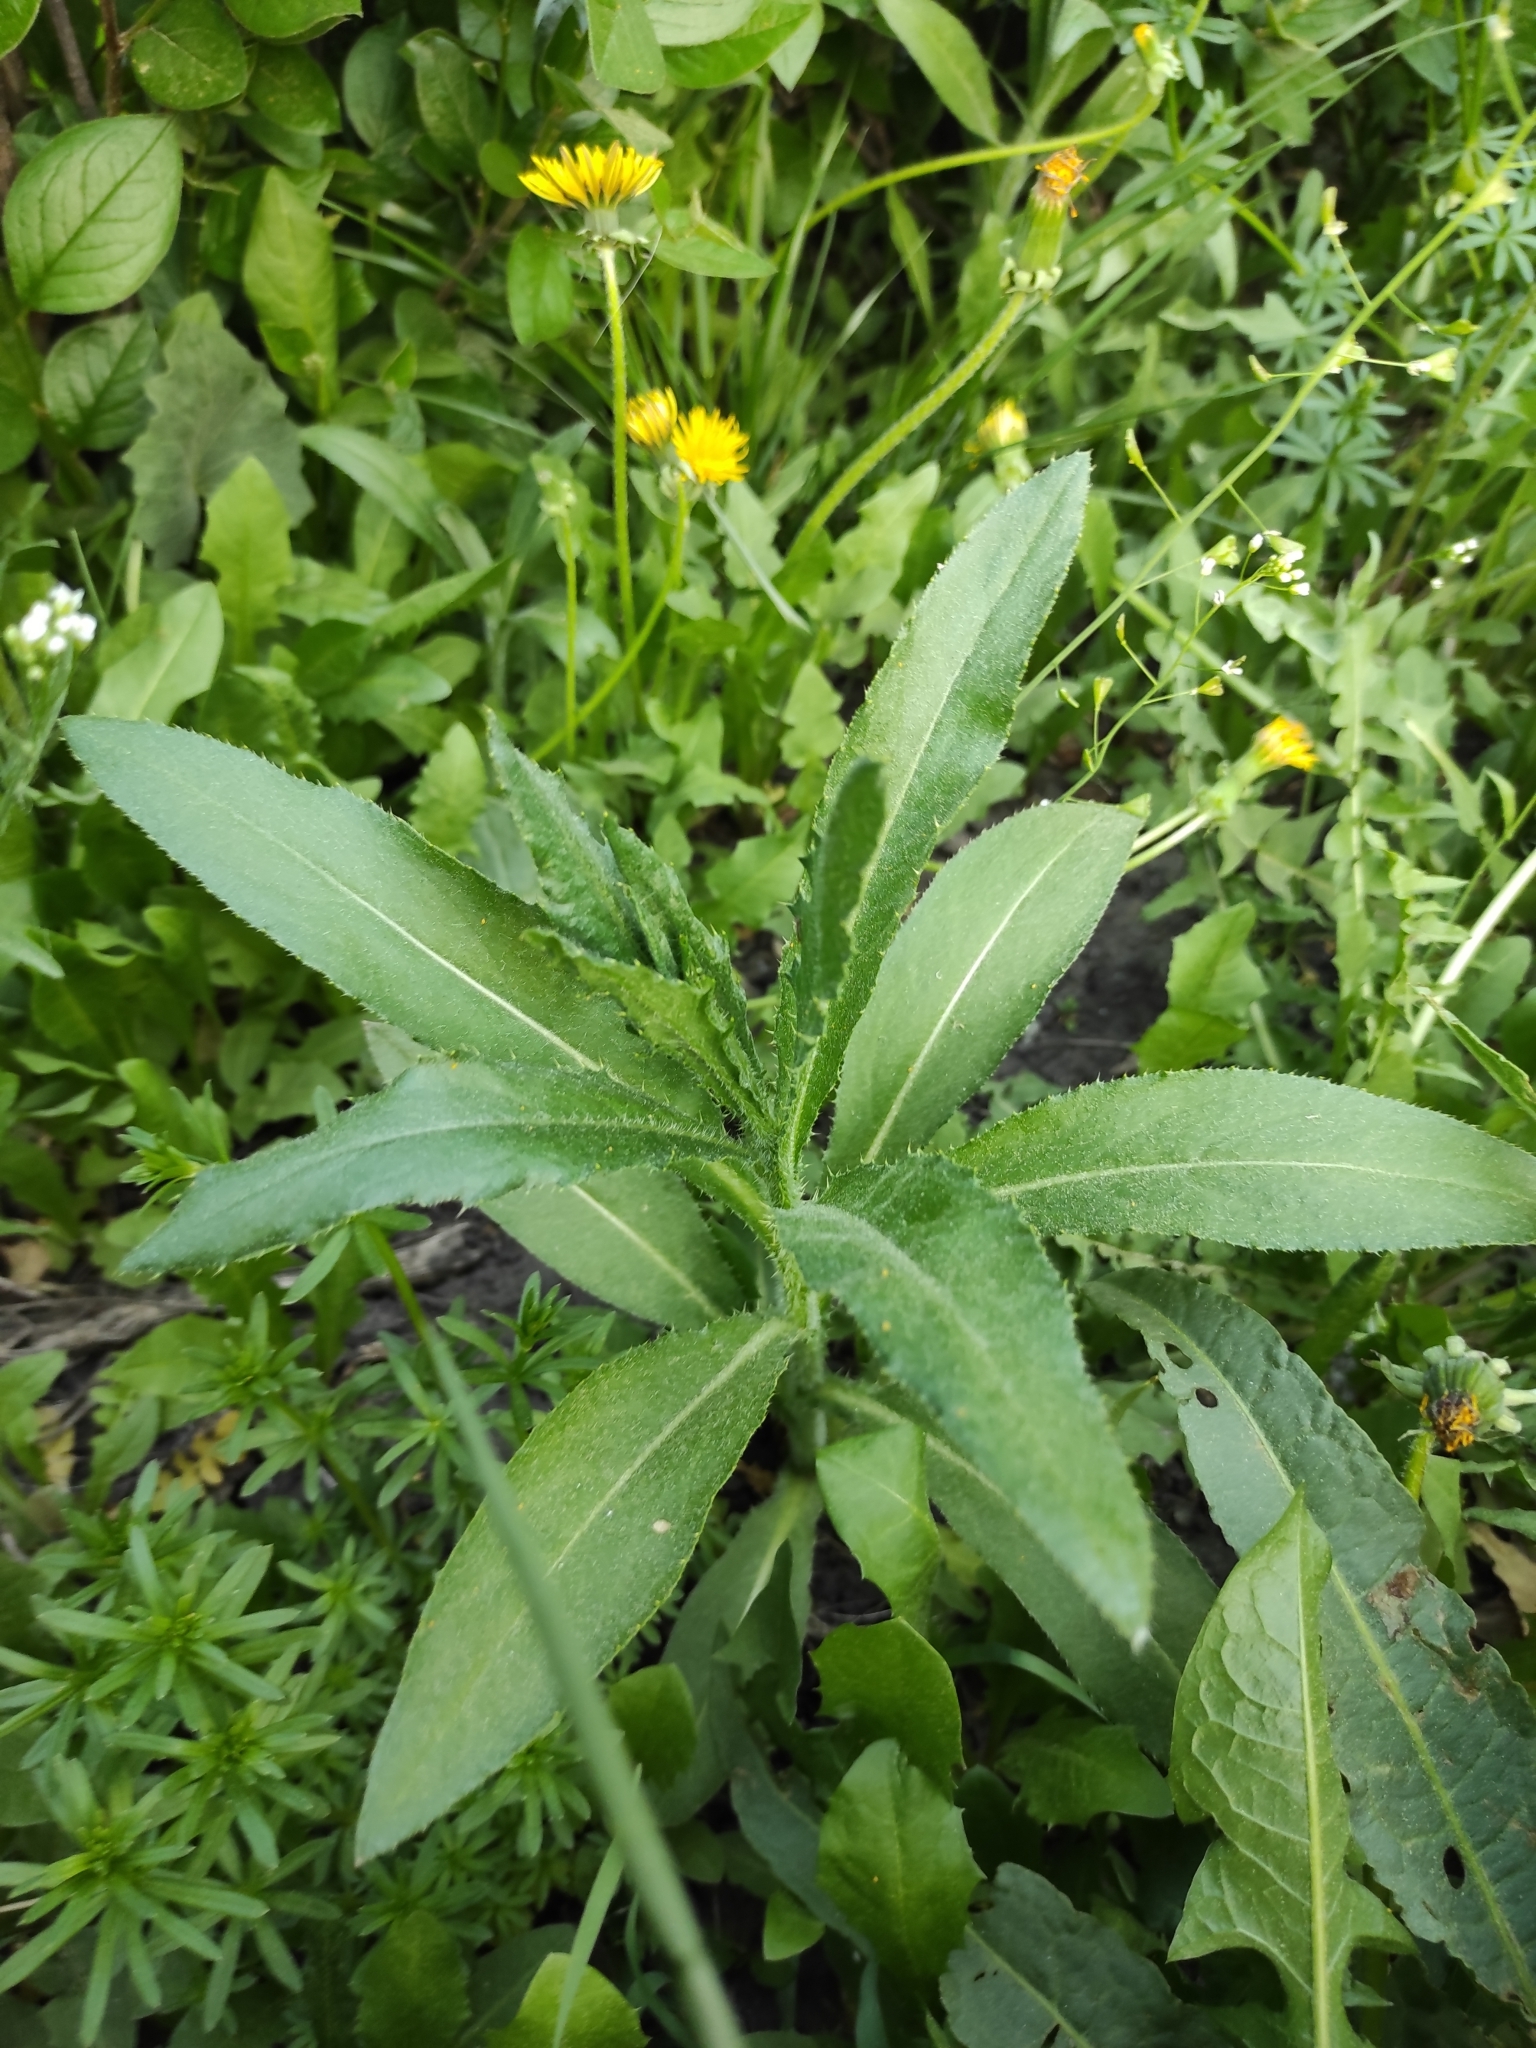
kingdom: Plantae
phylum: Tracheophyta
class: Magnoliopsida
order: Asterales
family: Asteraceae
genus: Cirsium
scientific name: Cirsium arvense
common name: Creeping thistle
